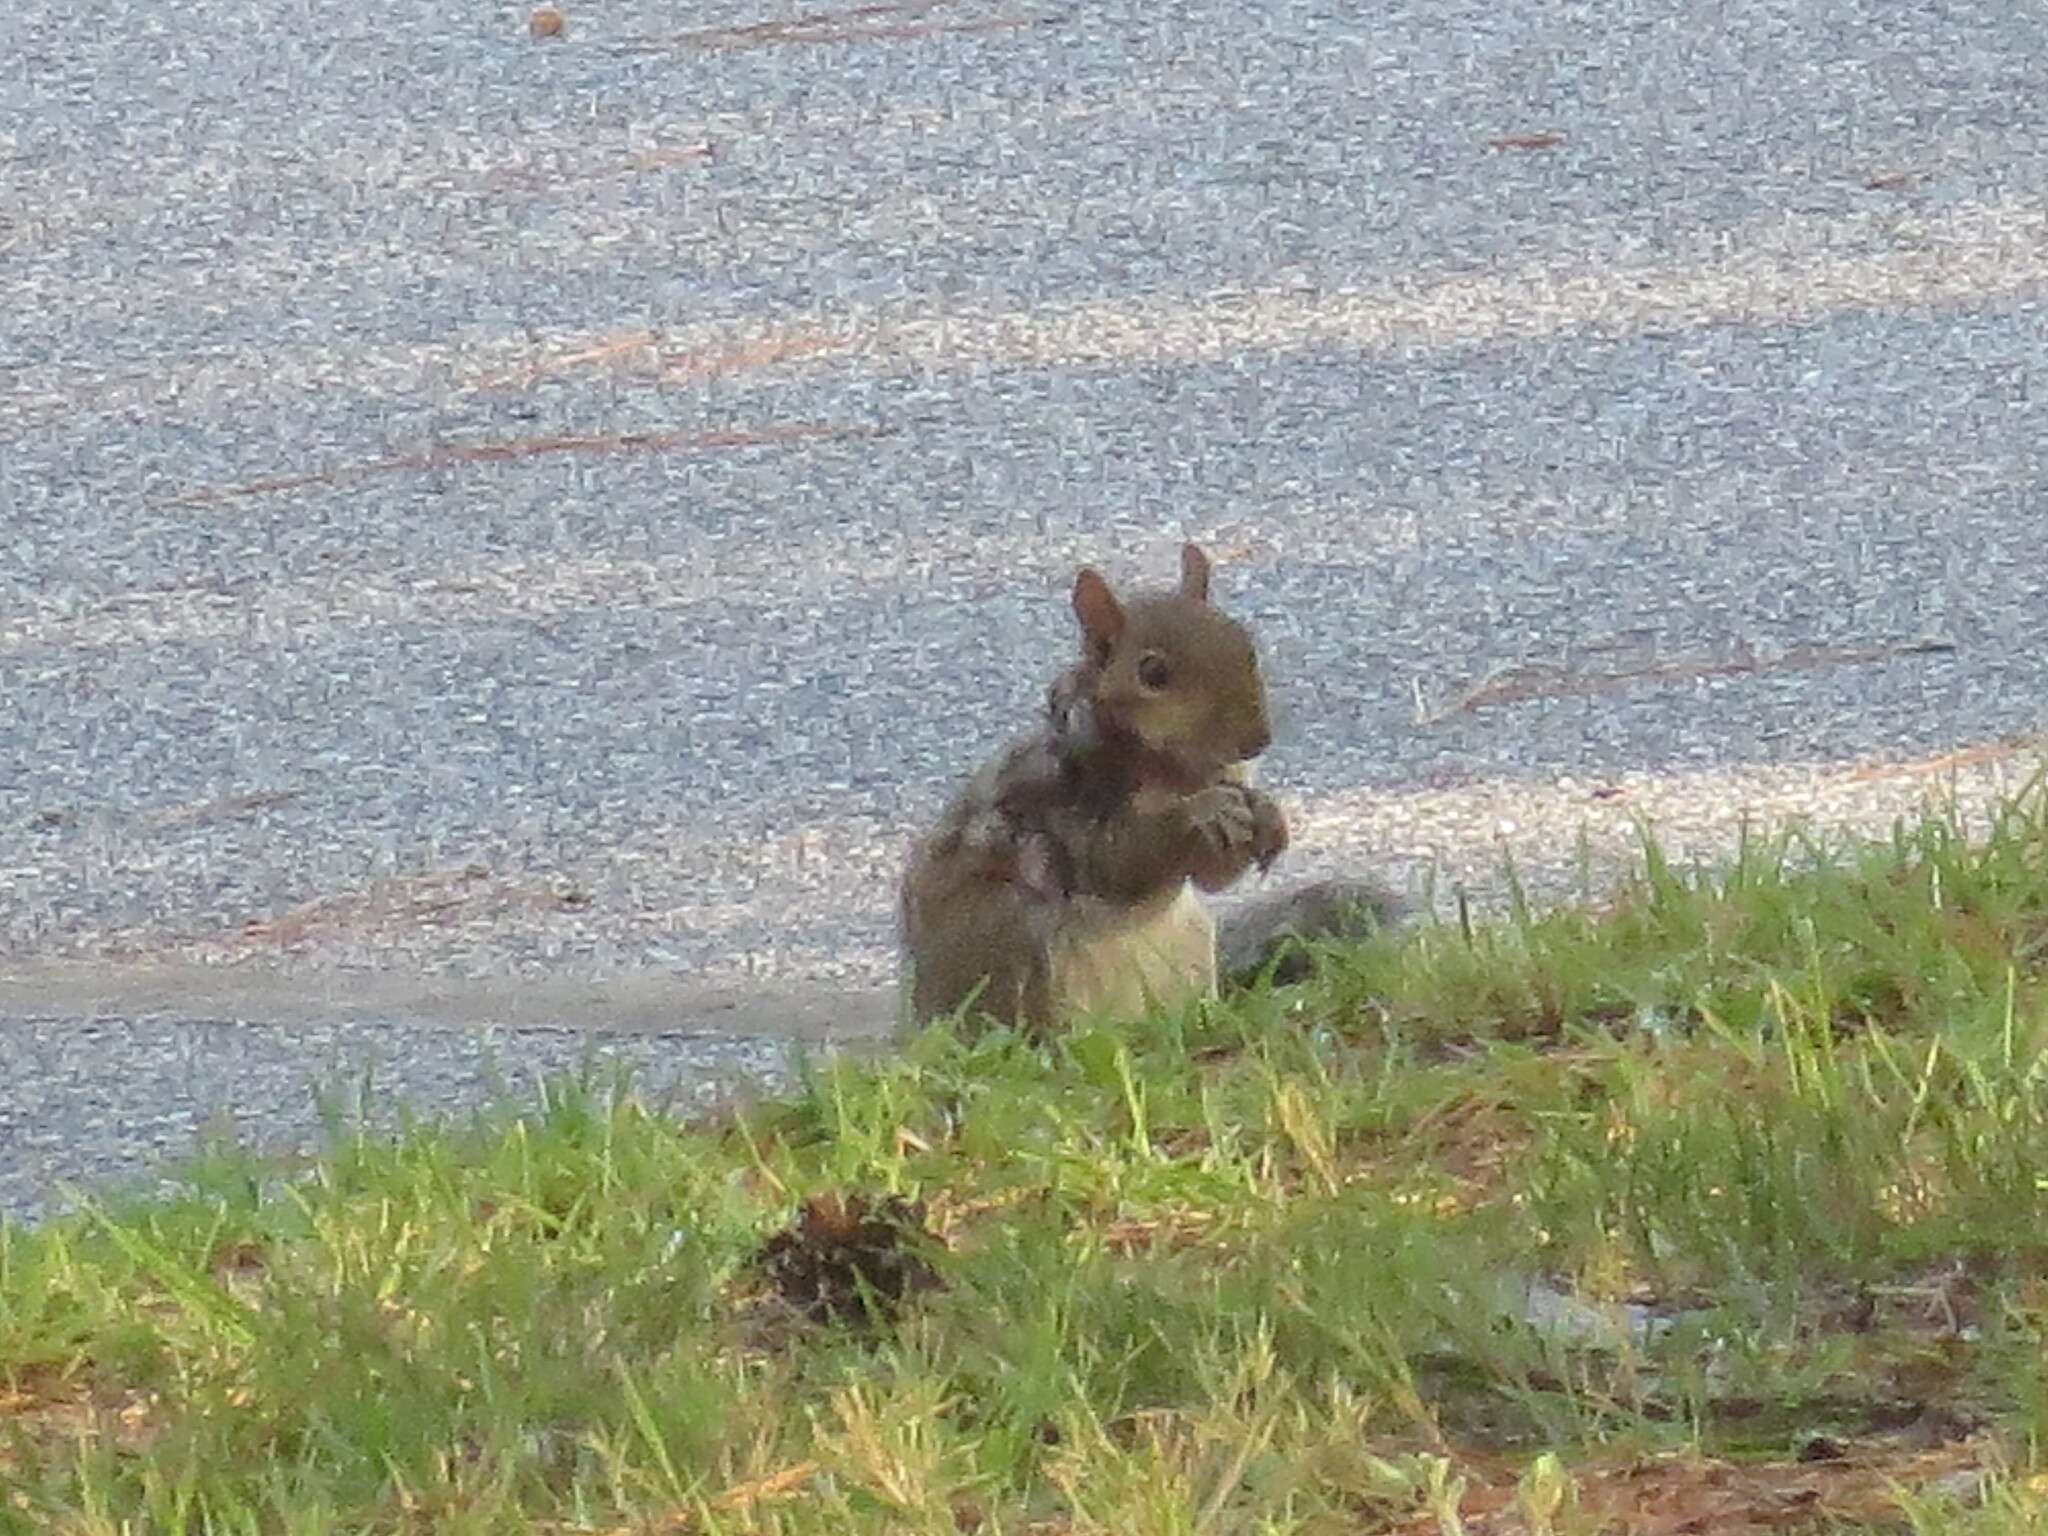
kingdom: Animalia
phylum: Chordata
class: Mammalia
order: Rodentia
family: Sciuridae
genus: Sciurus
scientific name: Sciurus carolinensis
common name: Eastern gray squirrel
